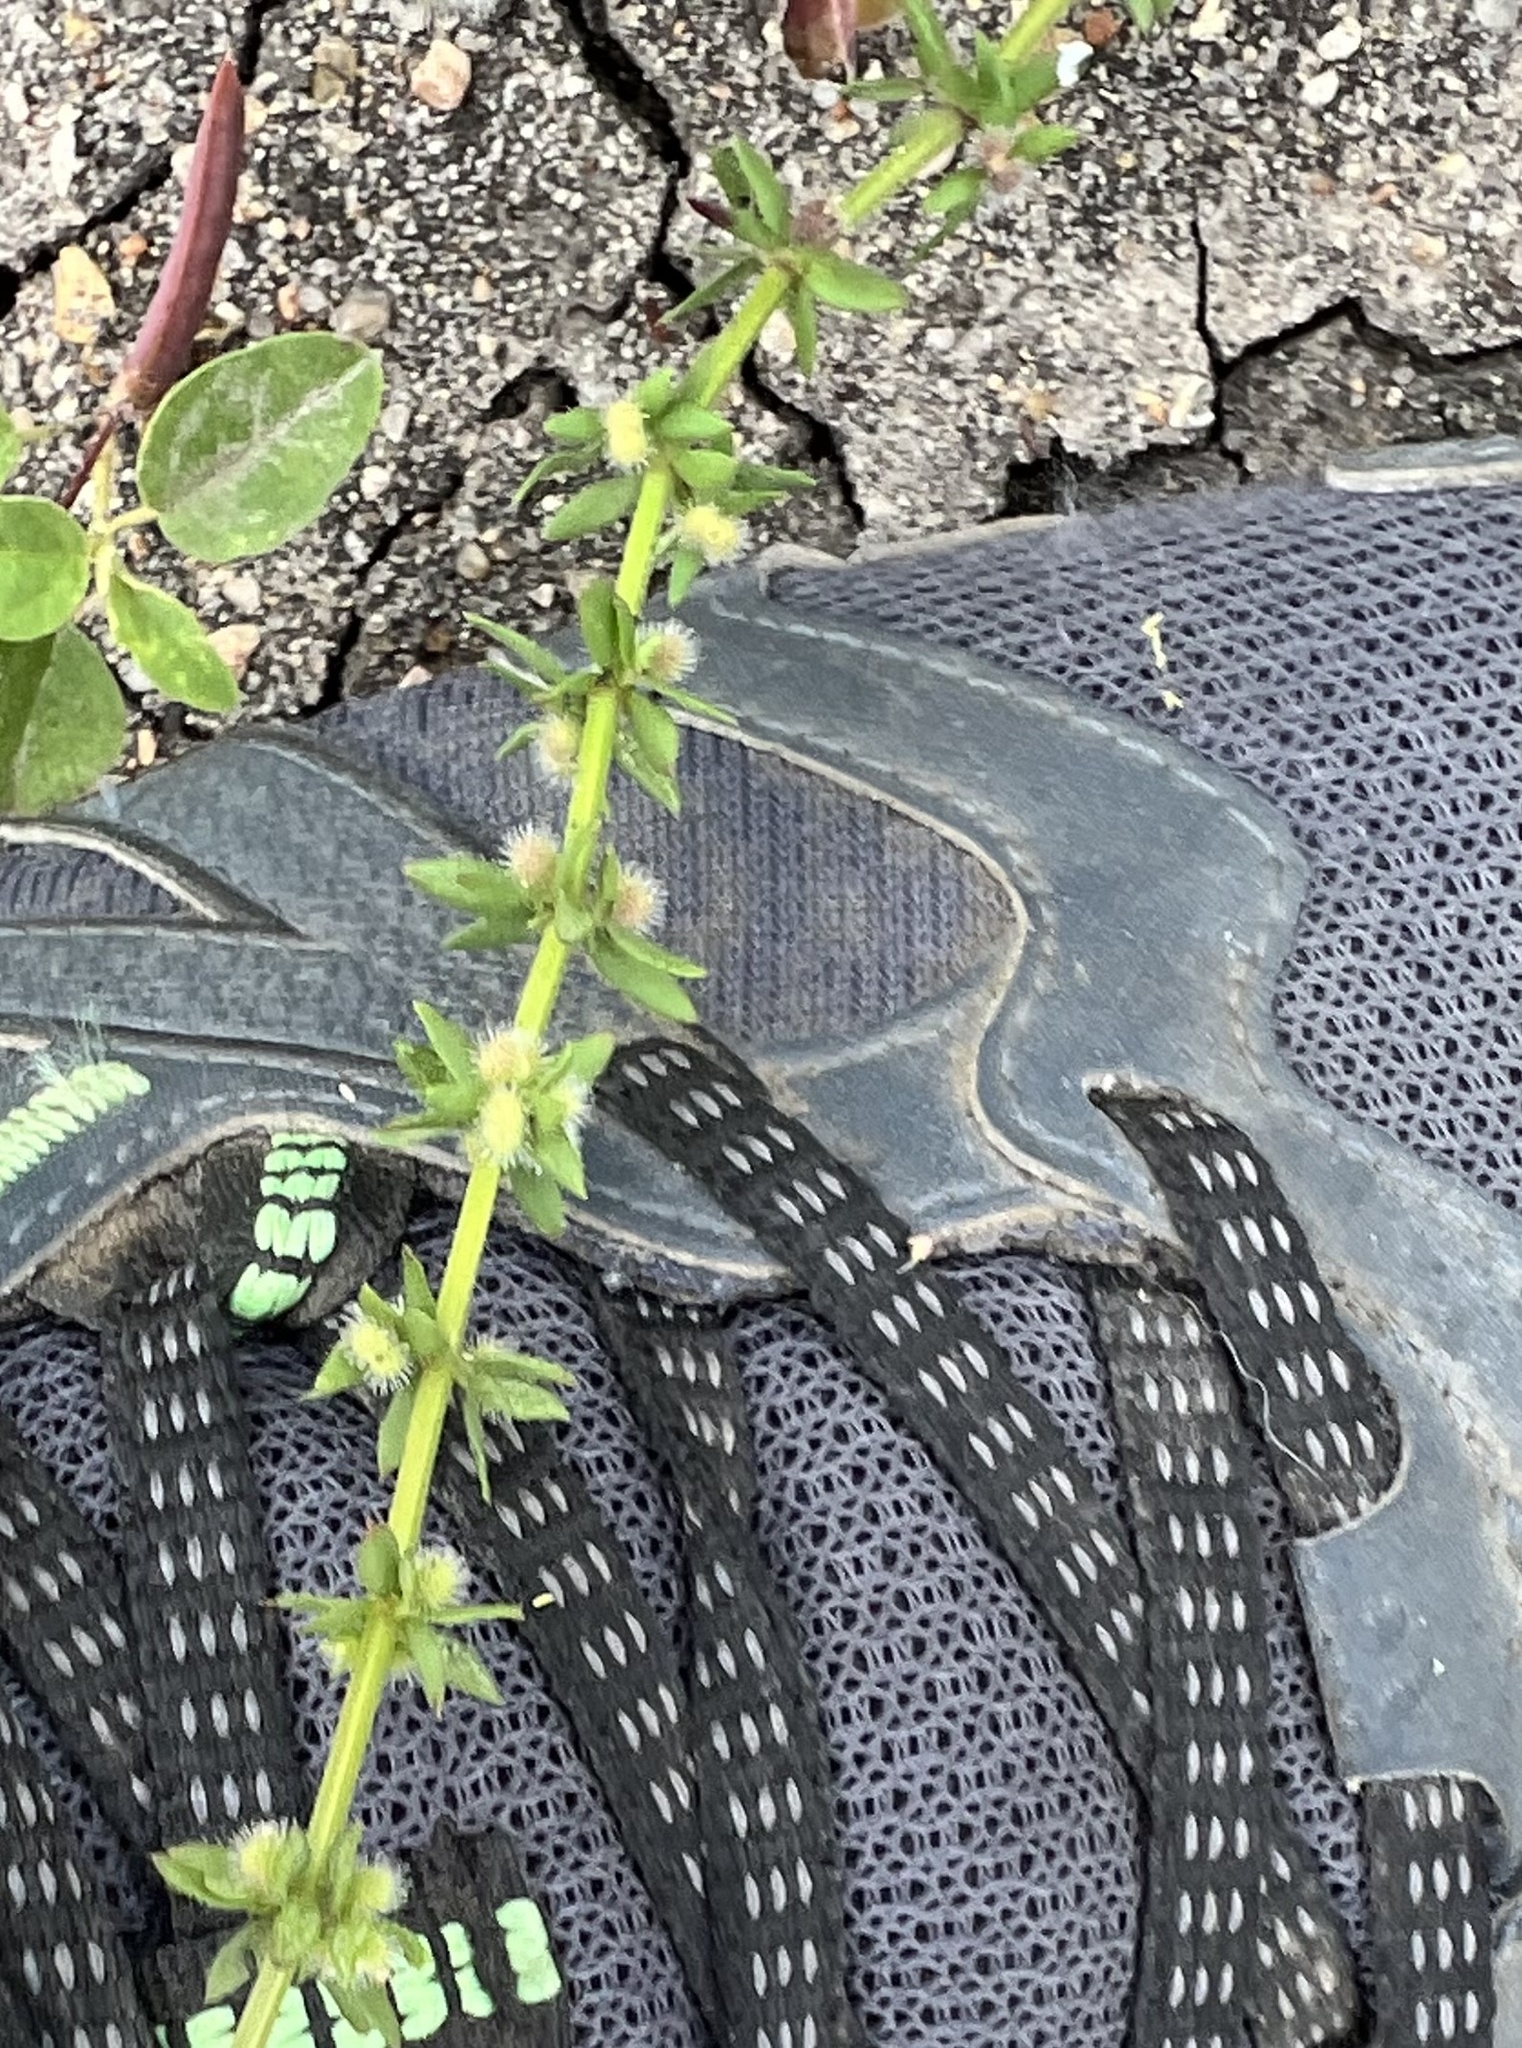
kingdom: Plantae
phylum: Tracheophyta
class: Magnoliopsida
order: Gentianales
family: Rubiaceae
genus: Galium
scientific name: Galium virgatum
